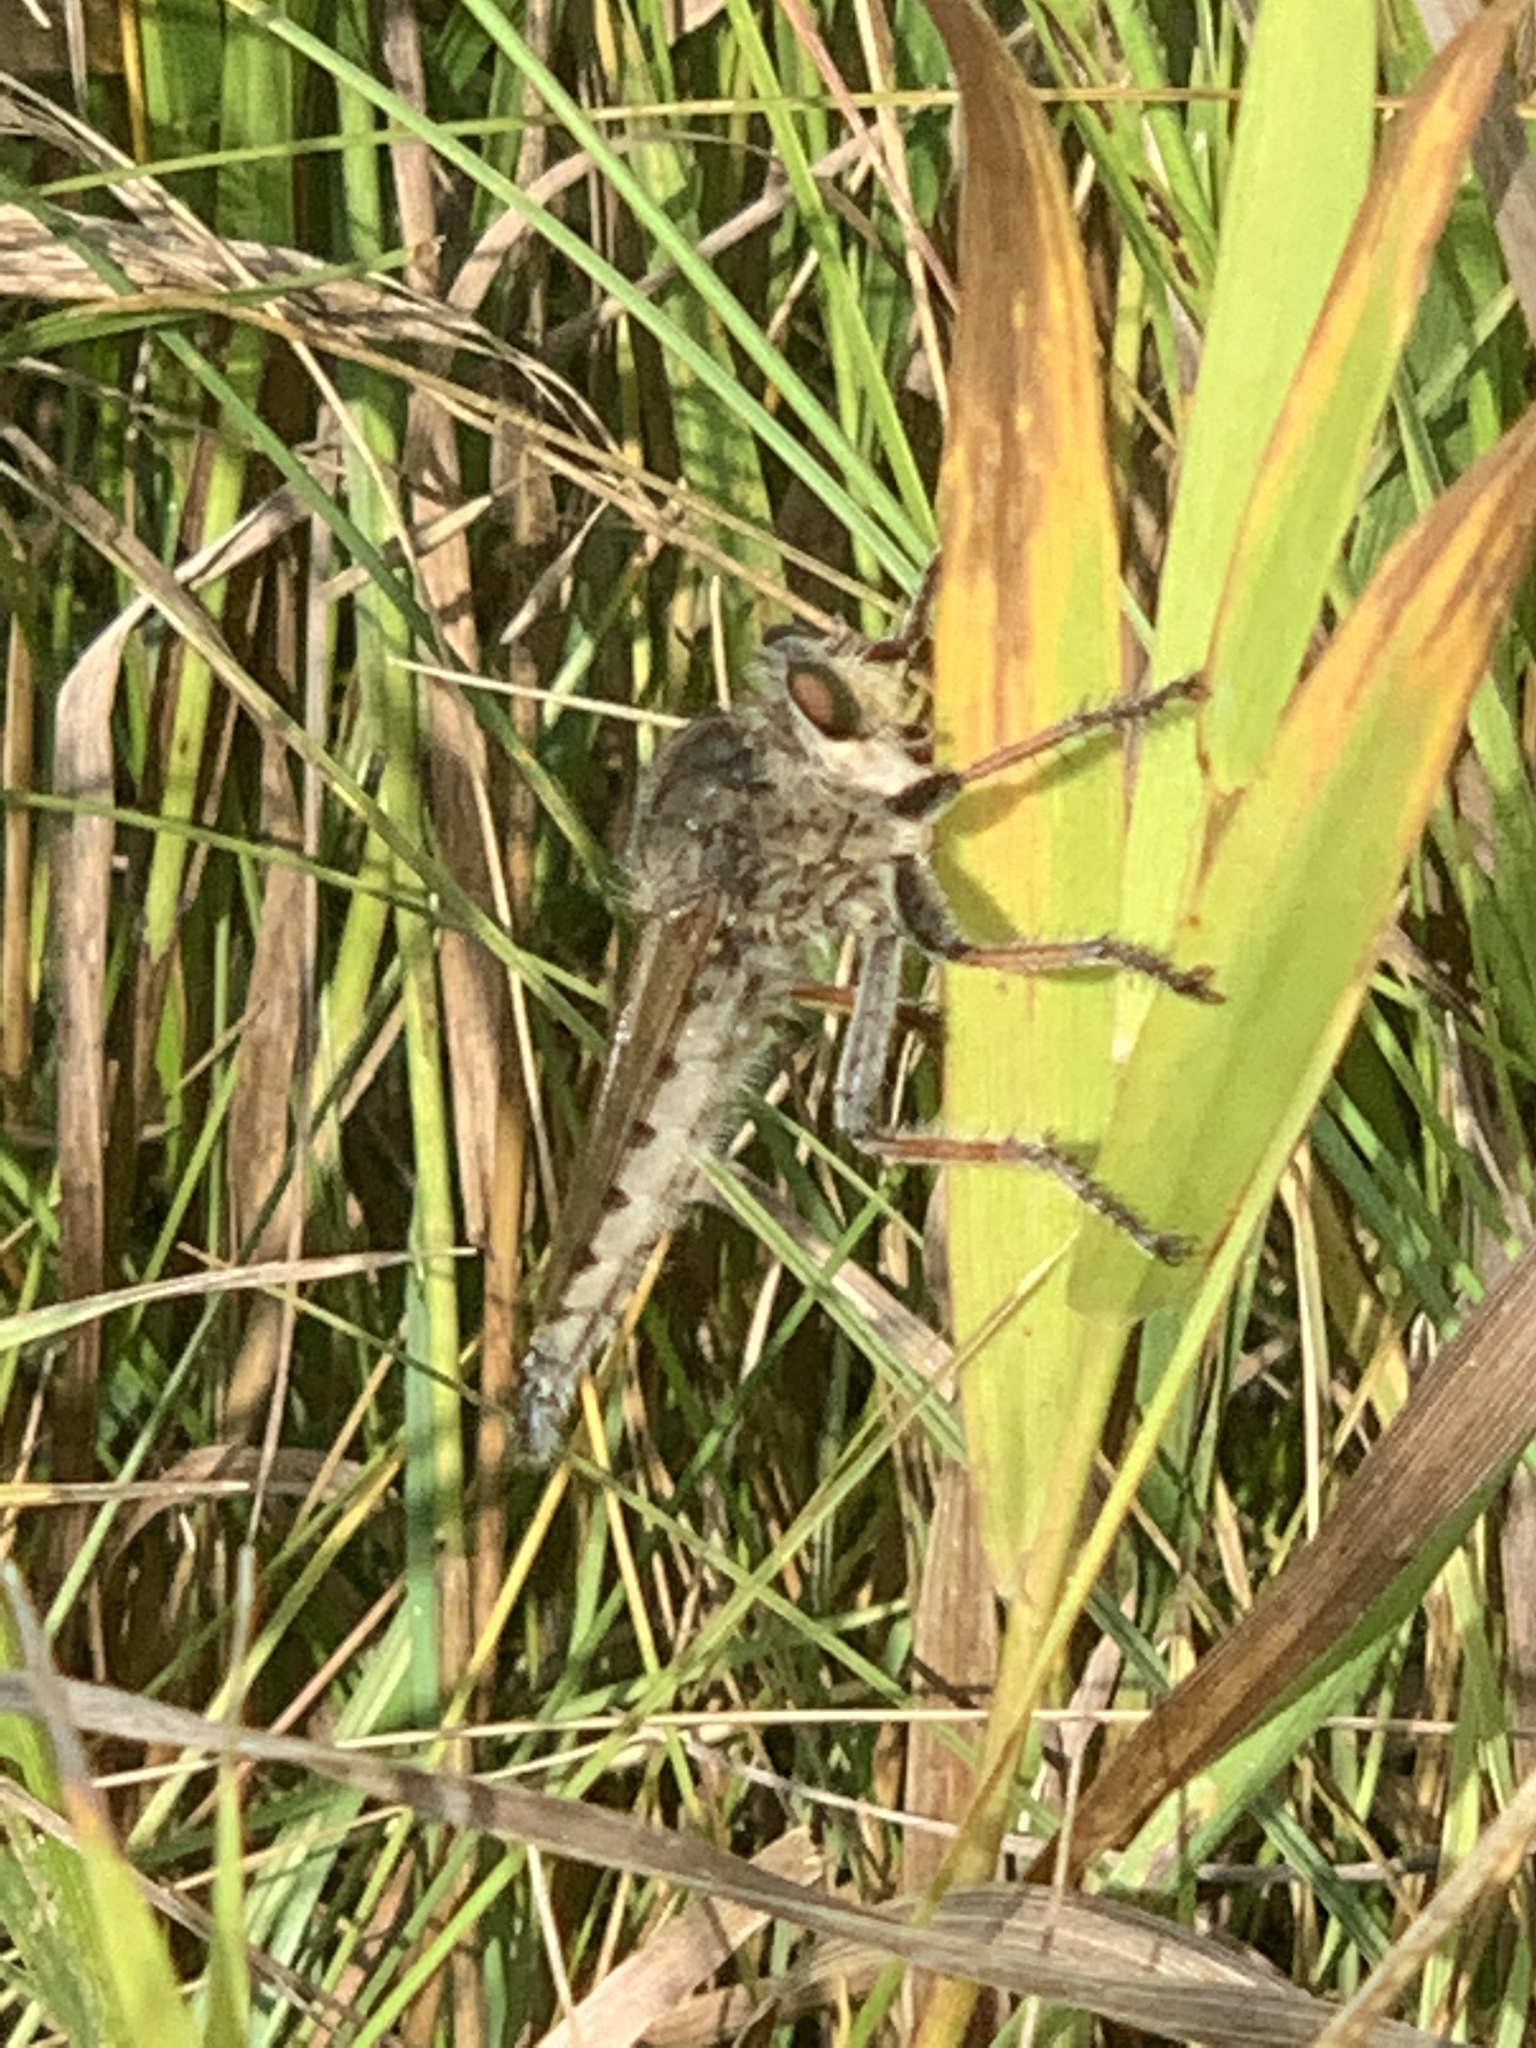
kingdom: Animalia
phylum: Arthropoda
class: Insecta
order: Diptera
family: Asilidae
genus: Promachus
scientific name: Promachus vertebratus
